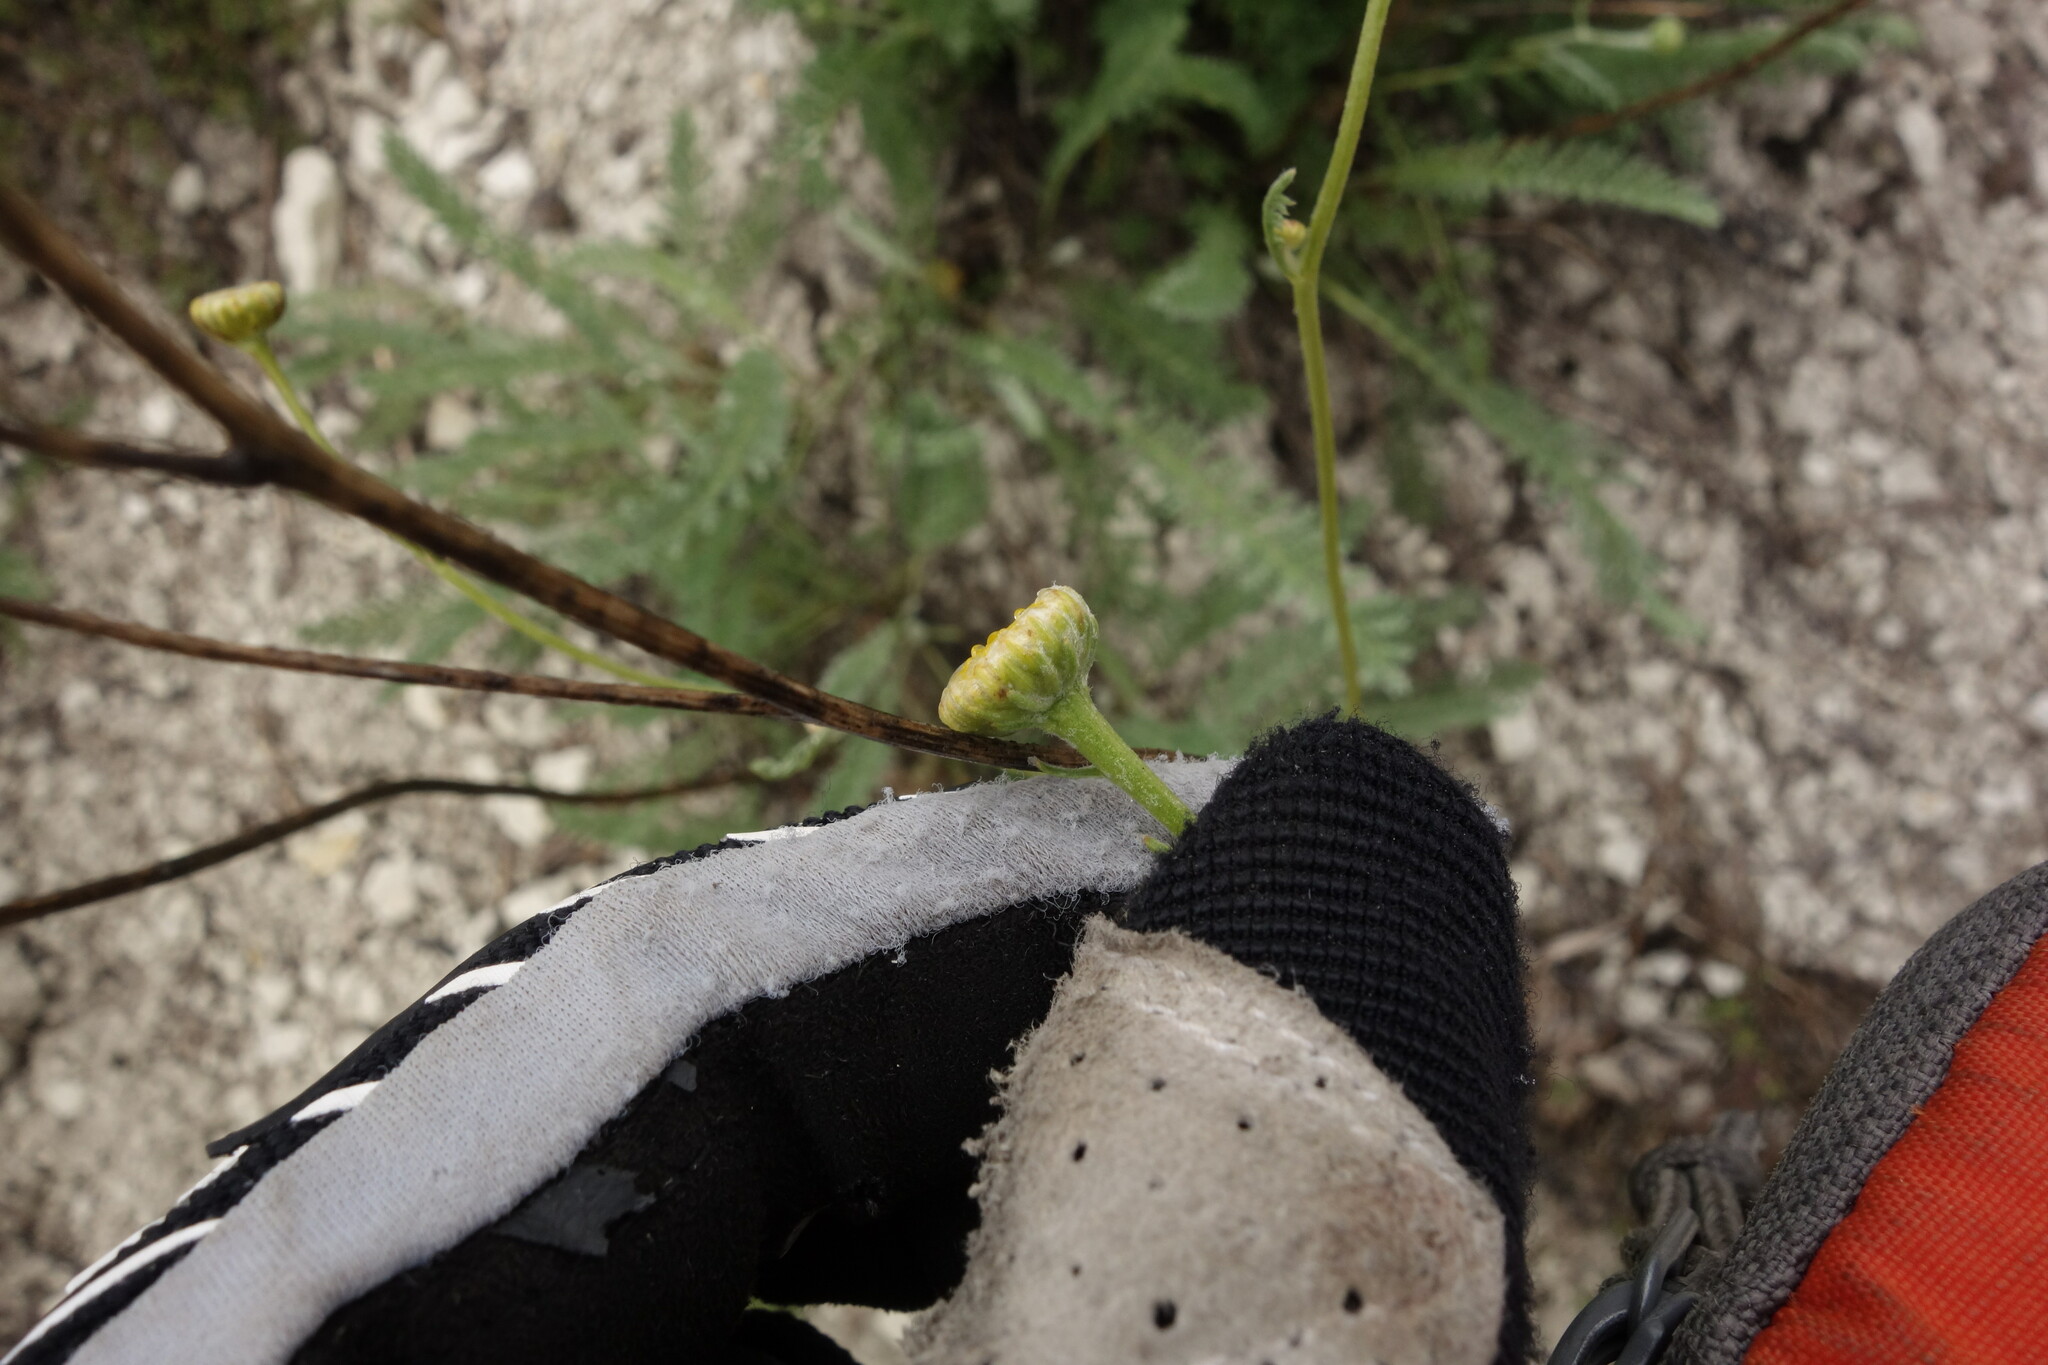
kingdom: Plantae
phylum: Tracheophyta
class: Magnoliopsida
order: Asterales
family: Asteraceae
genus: Tanacetum
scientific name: Tanacetum achilleifolium
